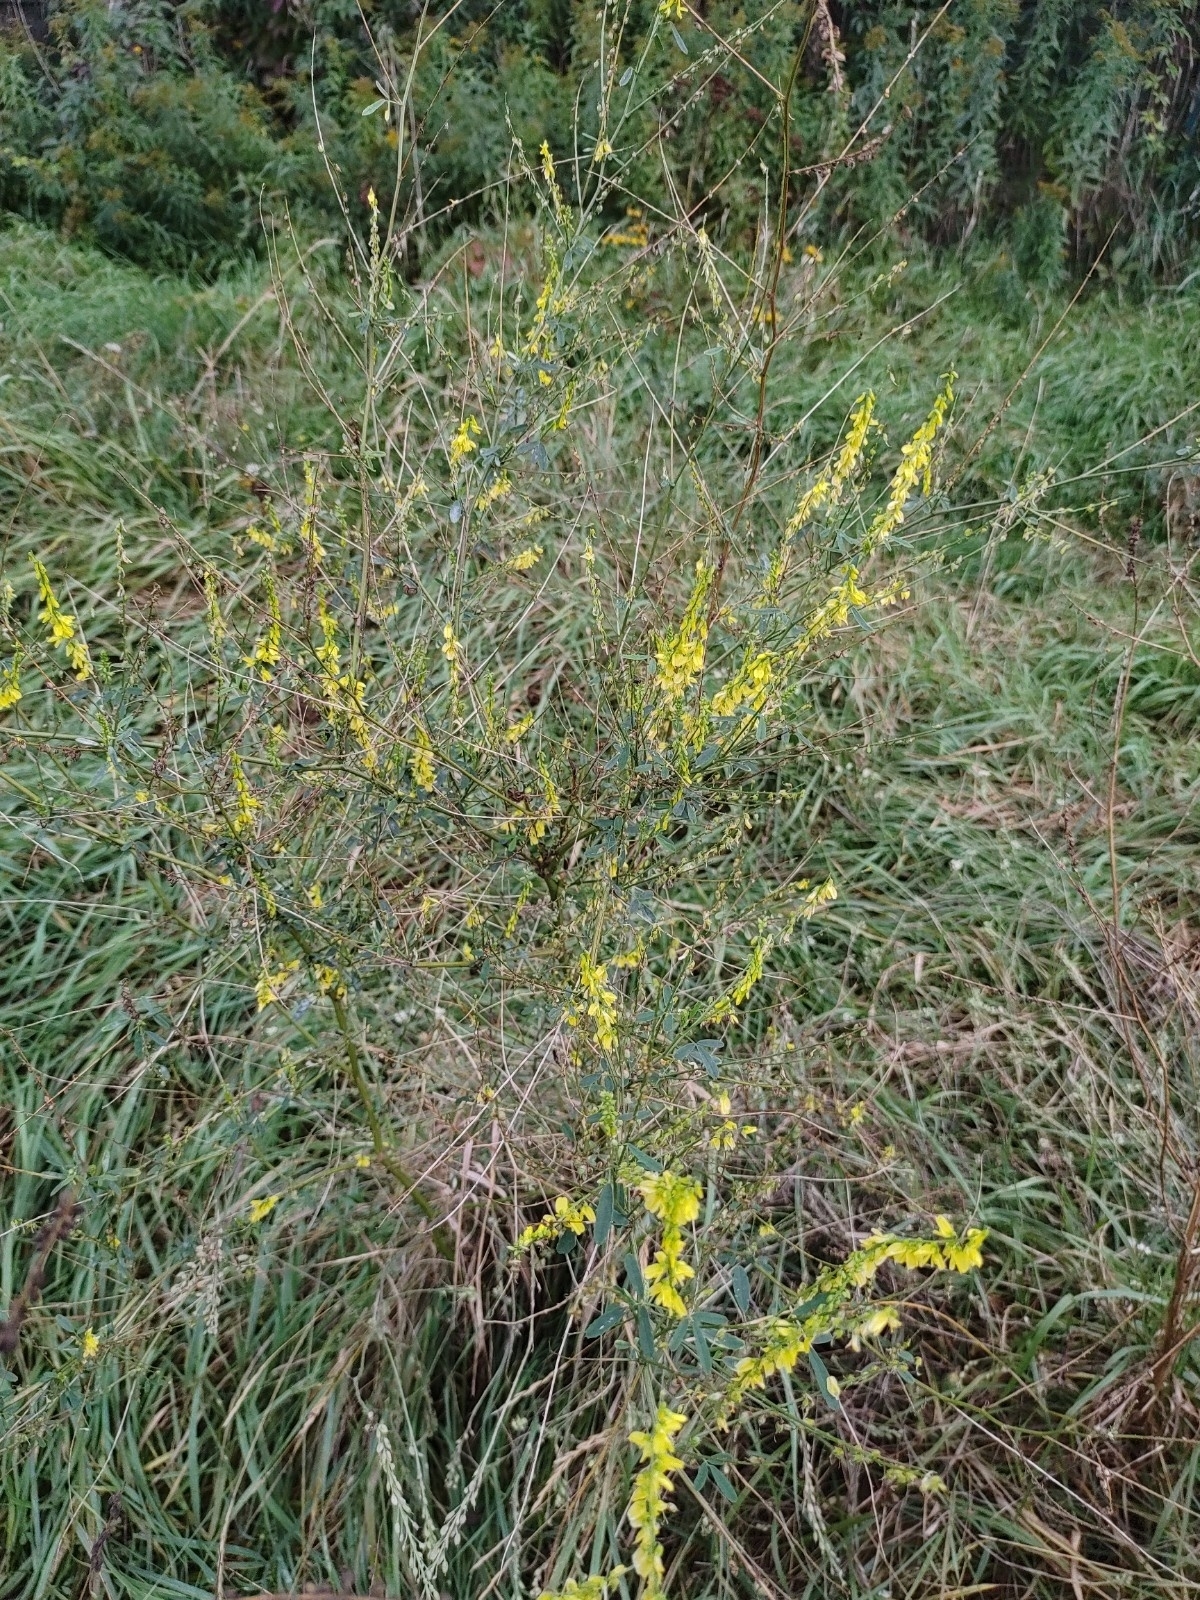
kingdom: Plantae
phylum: Tracheophyta
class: Magnoliopsida
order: Fabales
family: Fabaceae
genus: Melilotus
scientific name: Melilotus officinalis
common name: Sweetclover
